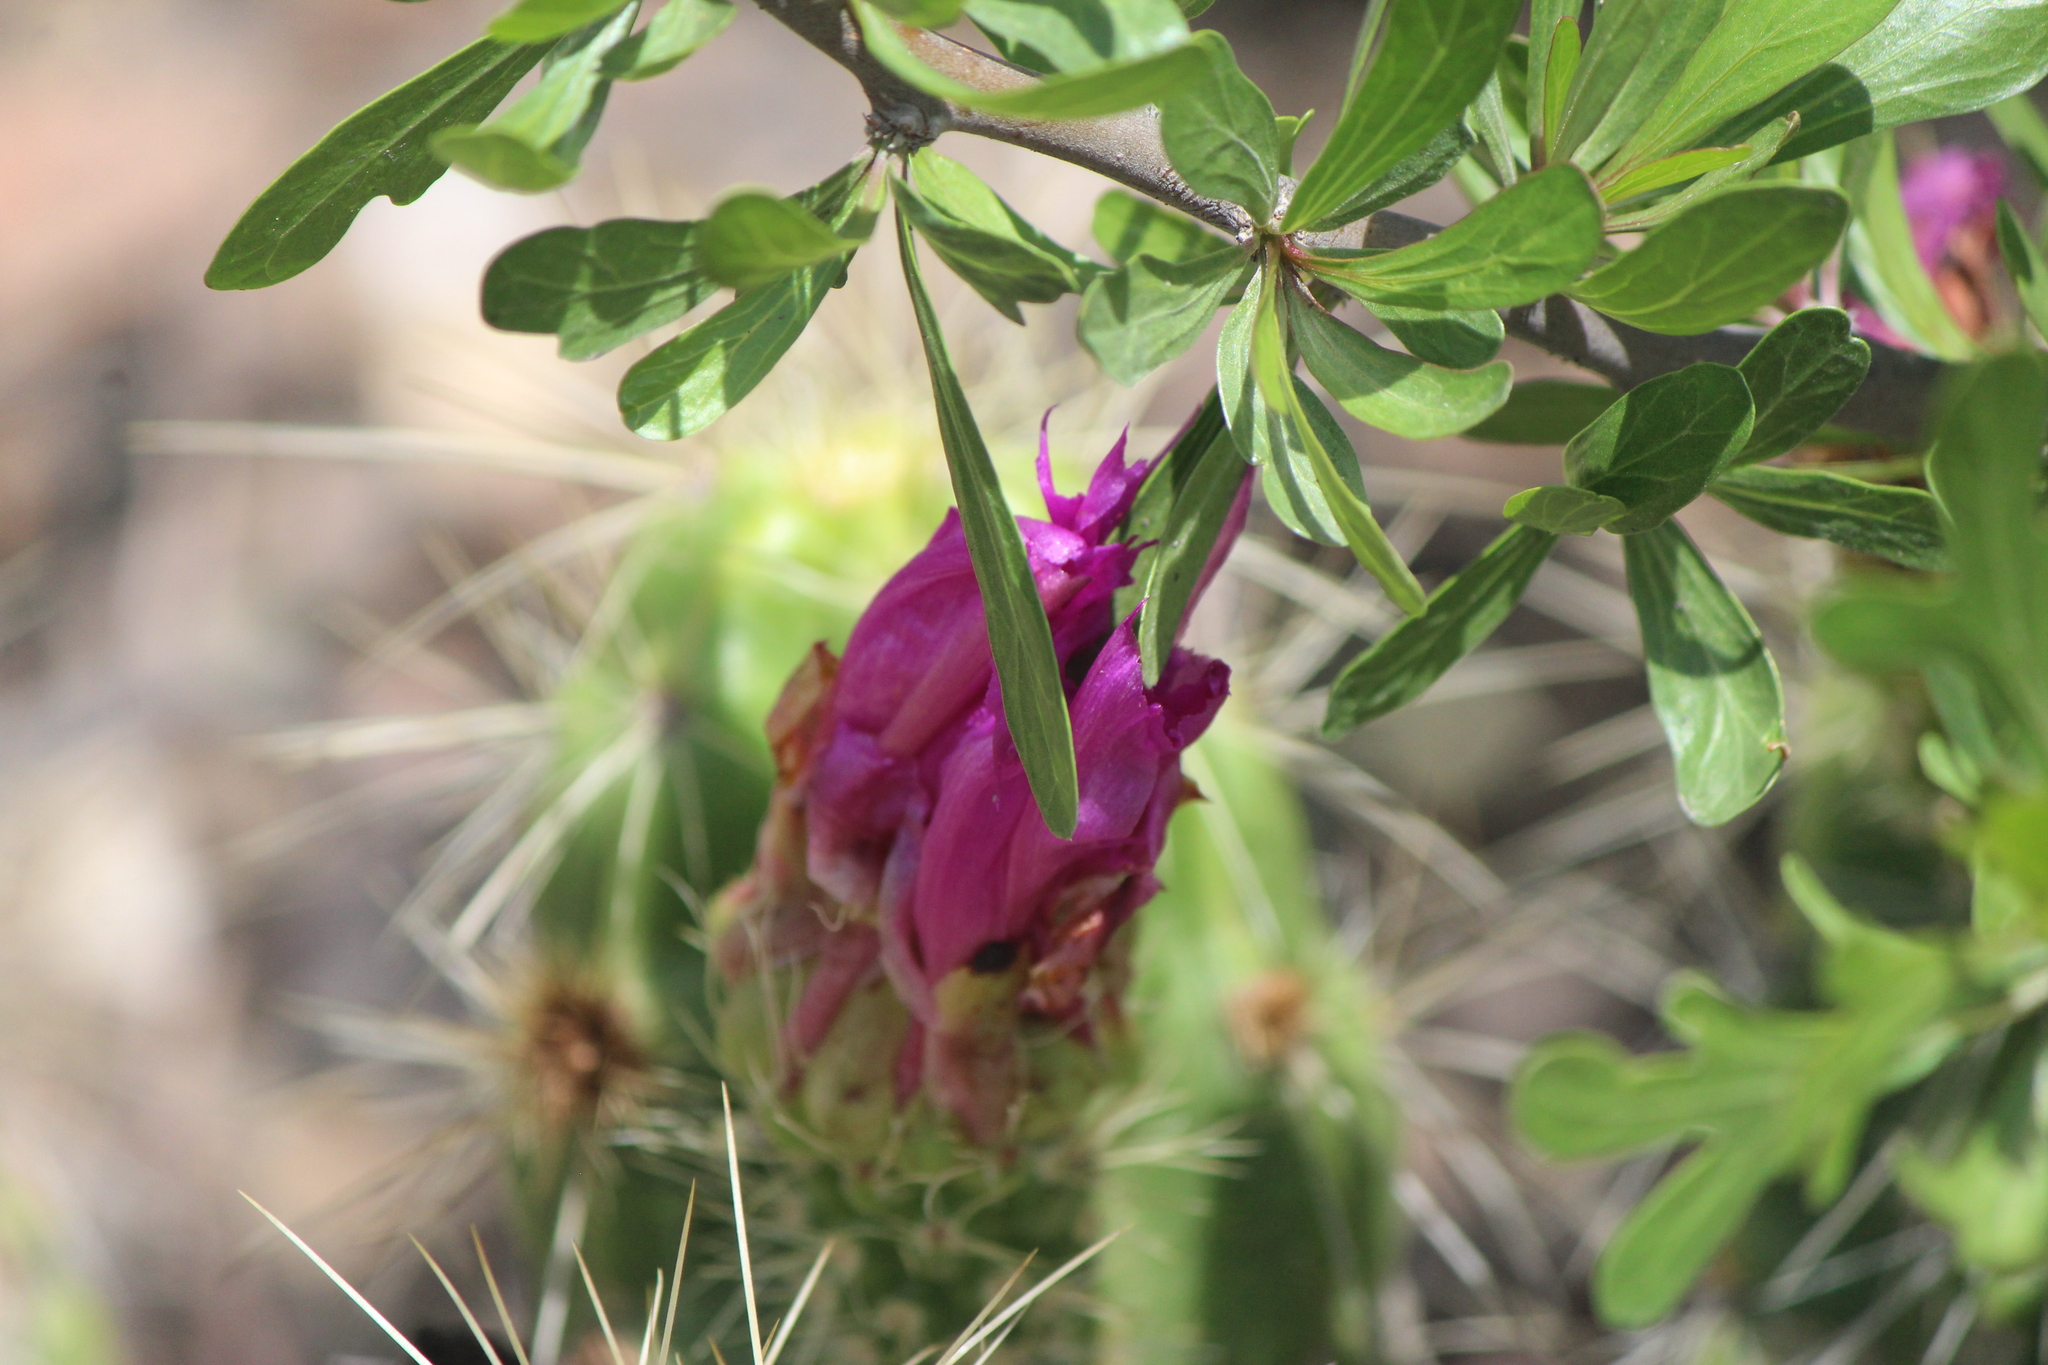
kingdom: Plantae
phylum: Tracheophyta
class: Magnoliopsida
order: Caryophyllales
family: Cactaceae
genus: Echinocereus
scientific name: Echinocereus cinerascens
